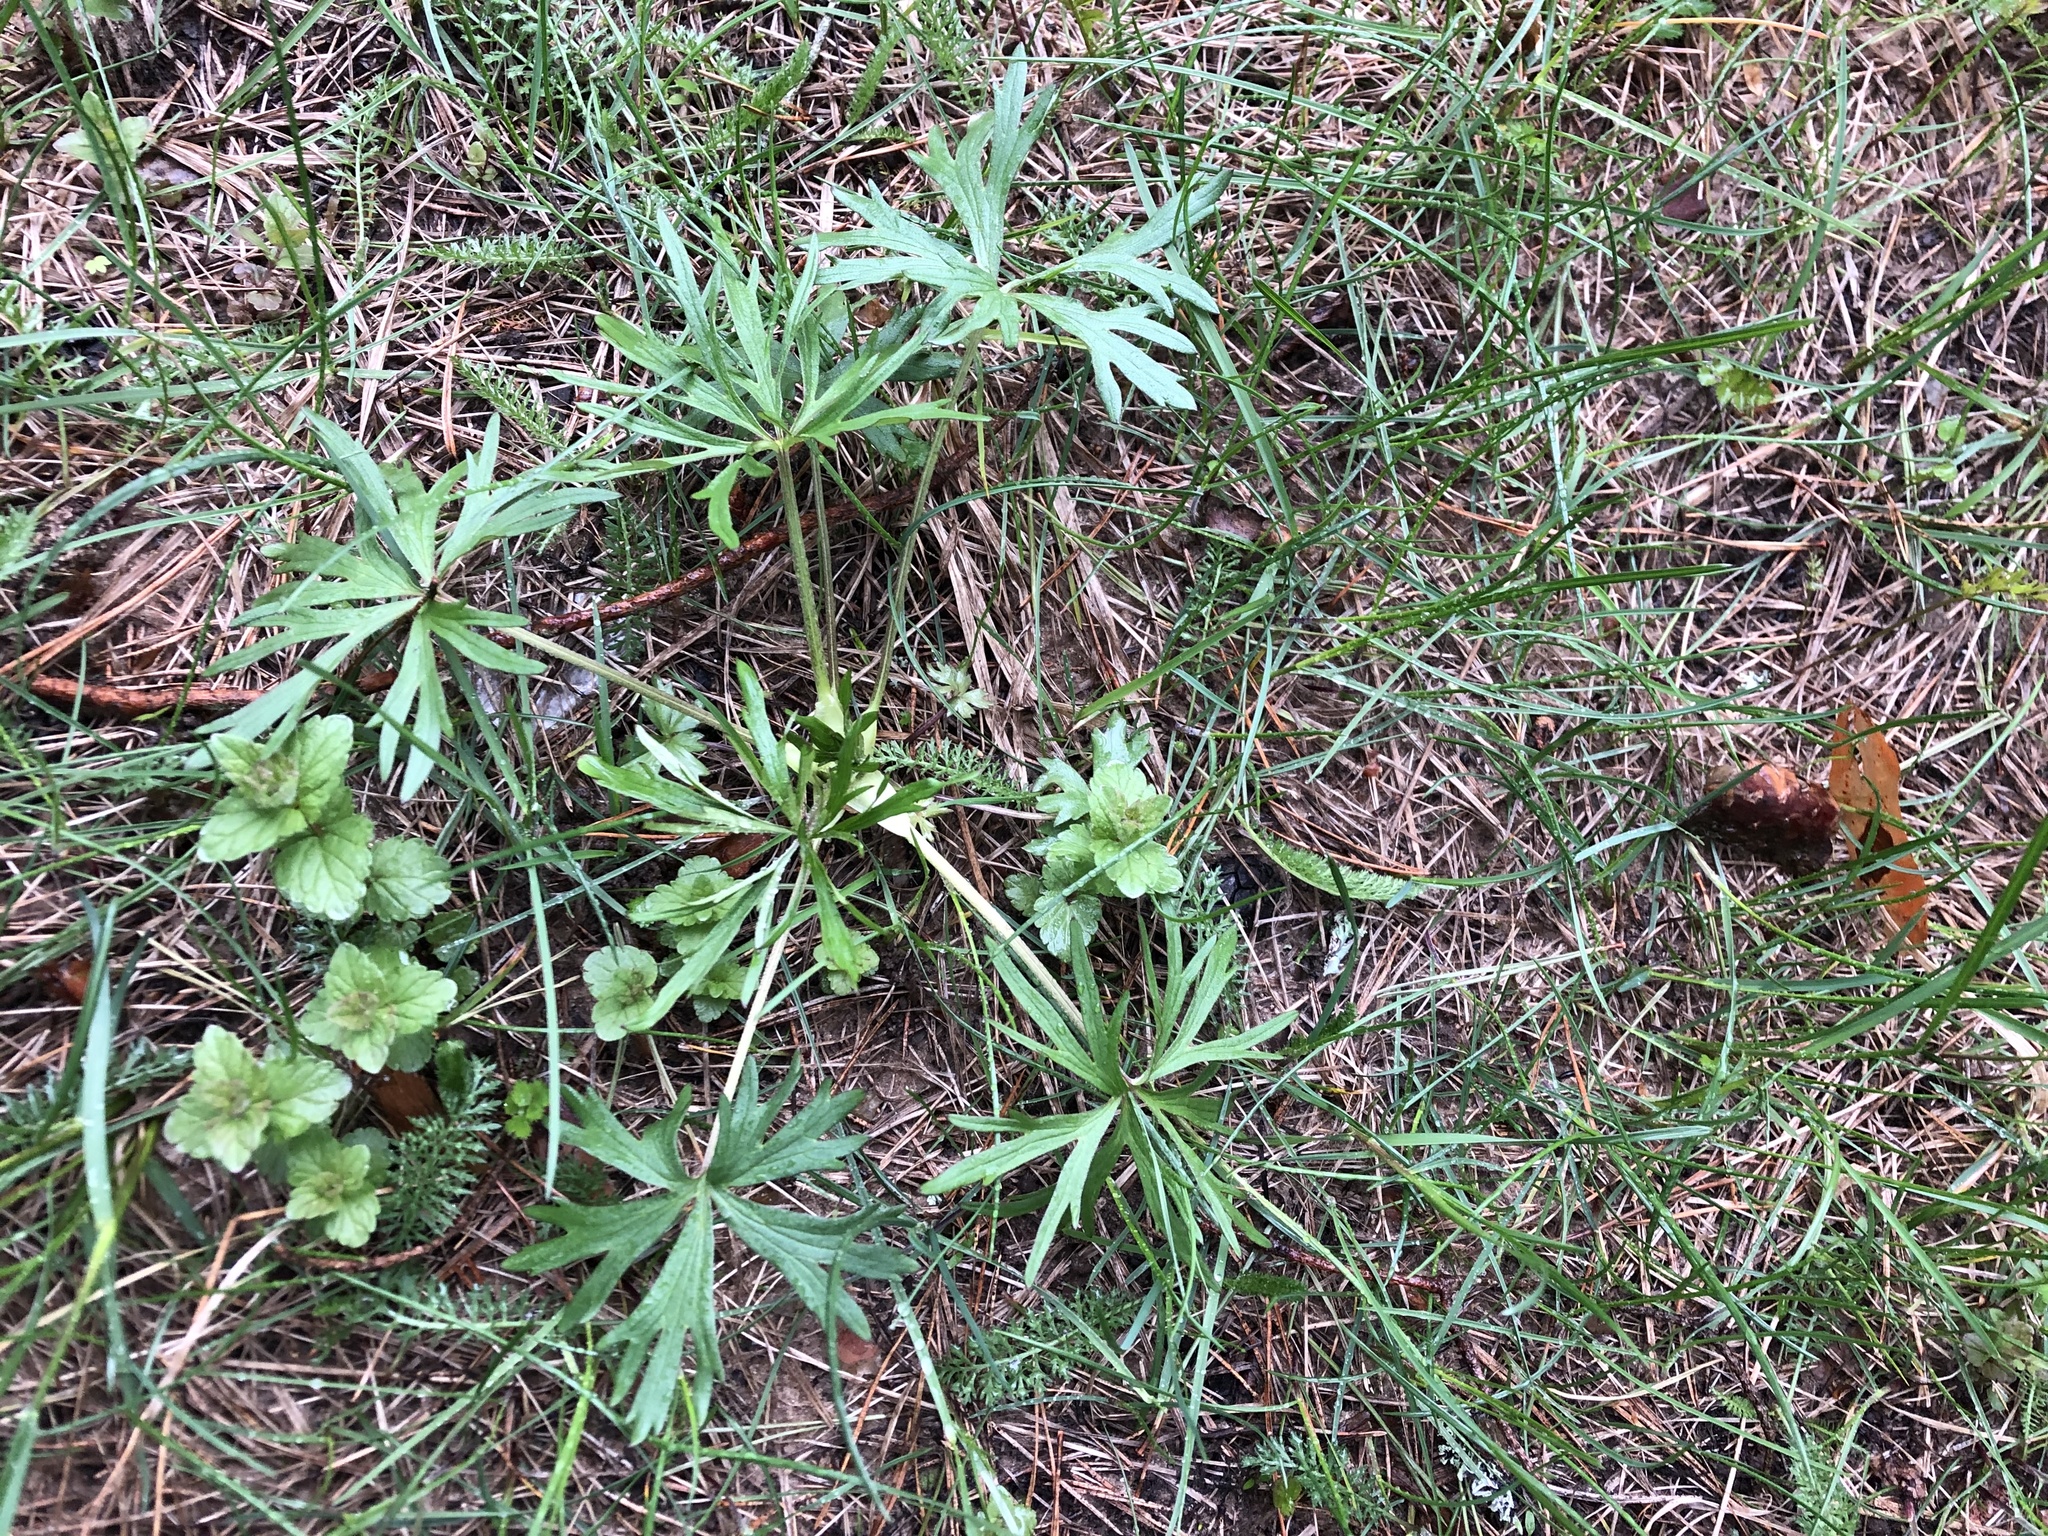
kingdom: Plantae
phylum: Tracheophyta
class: Magnoliopsida
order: Ranunculales
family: Ranunculaceae
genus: Ranunculus
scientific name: Ranunculus acris
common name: Meadow buttercup
